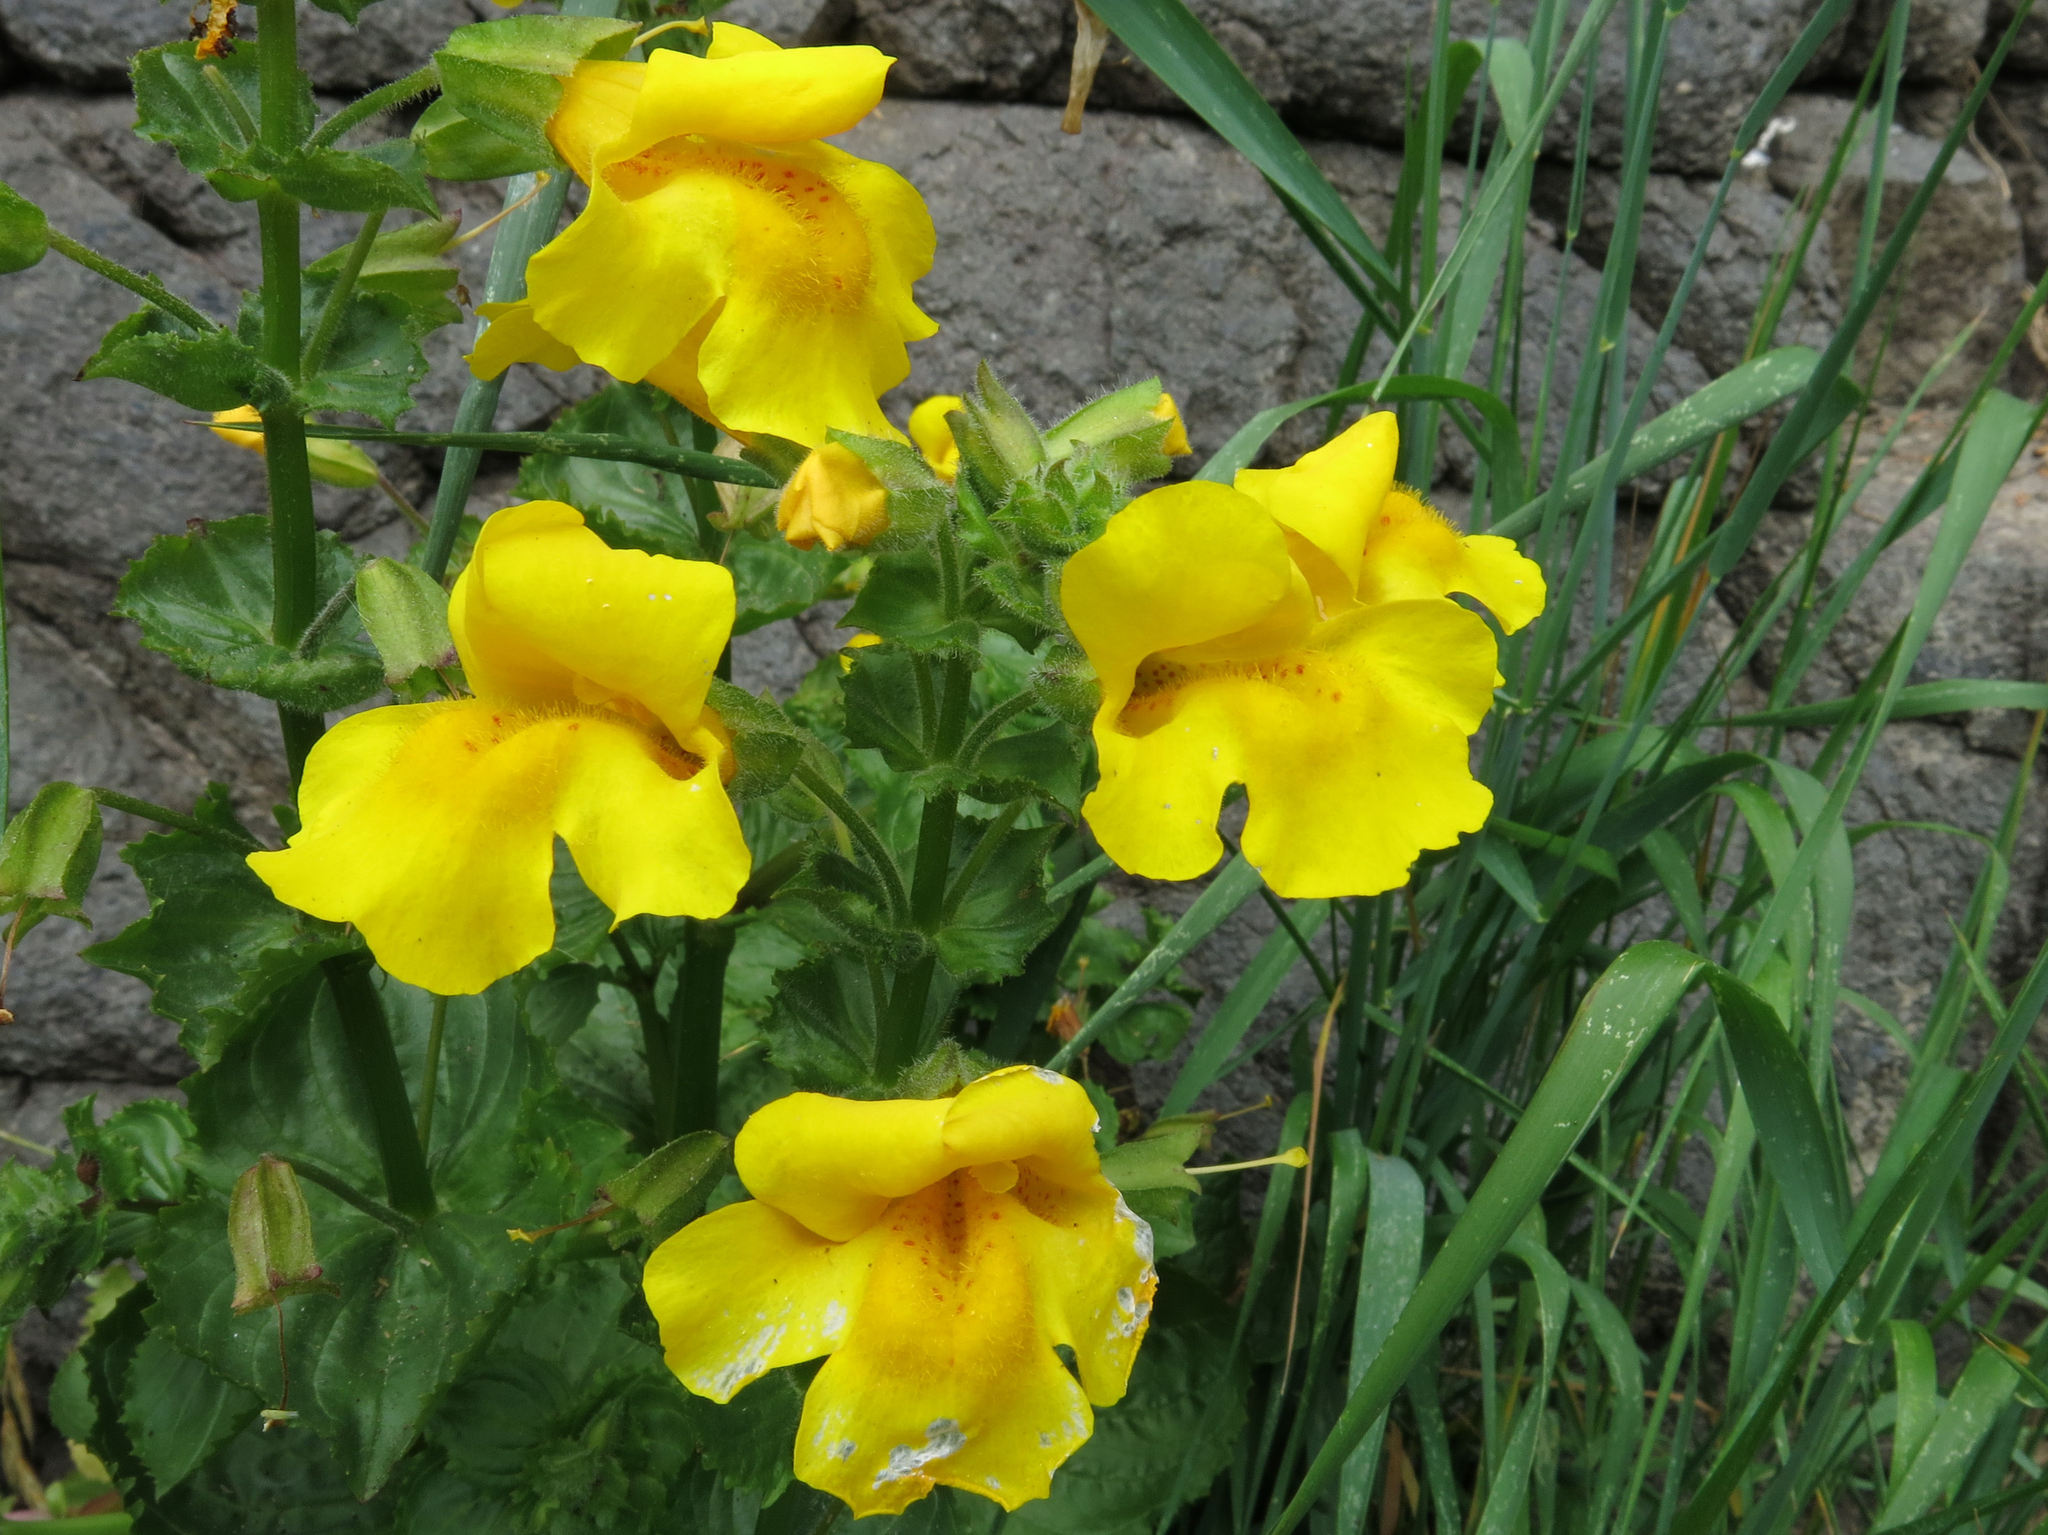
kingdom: Plantae
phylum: Tracheophyta
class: Magnoliopsida
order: Lamiales
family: Phrymaceae
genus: Erythranthe
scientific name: Erythranthe guttata
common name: Monkeyflower
